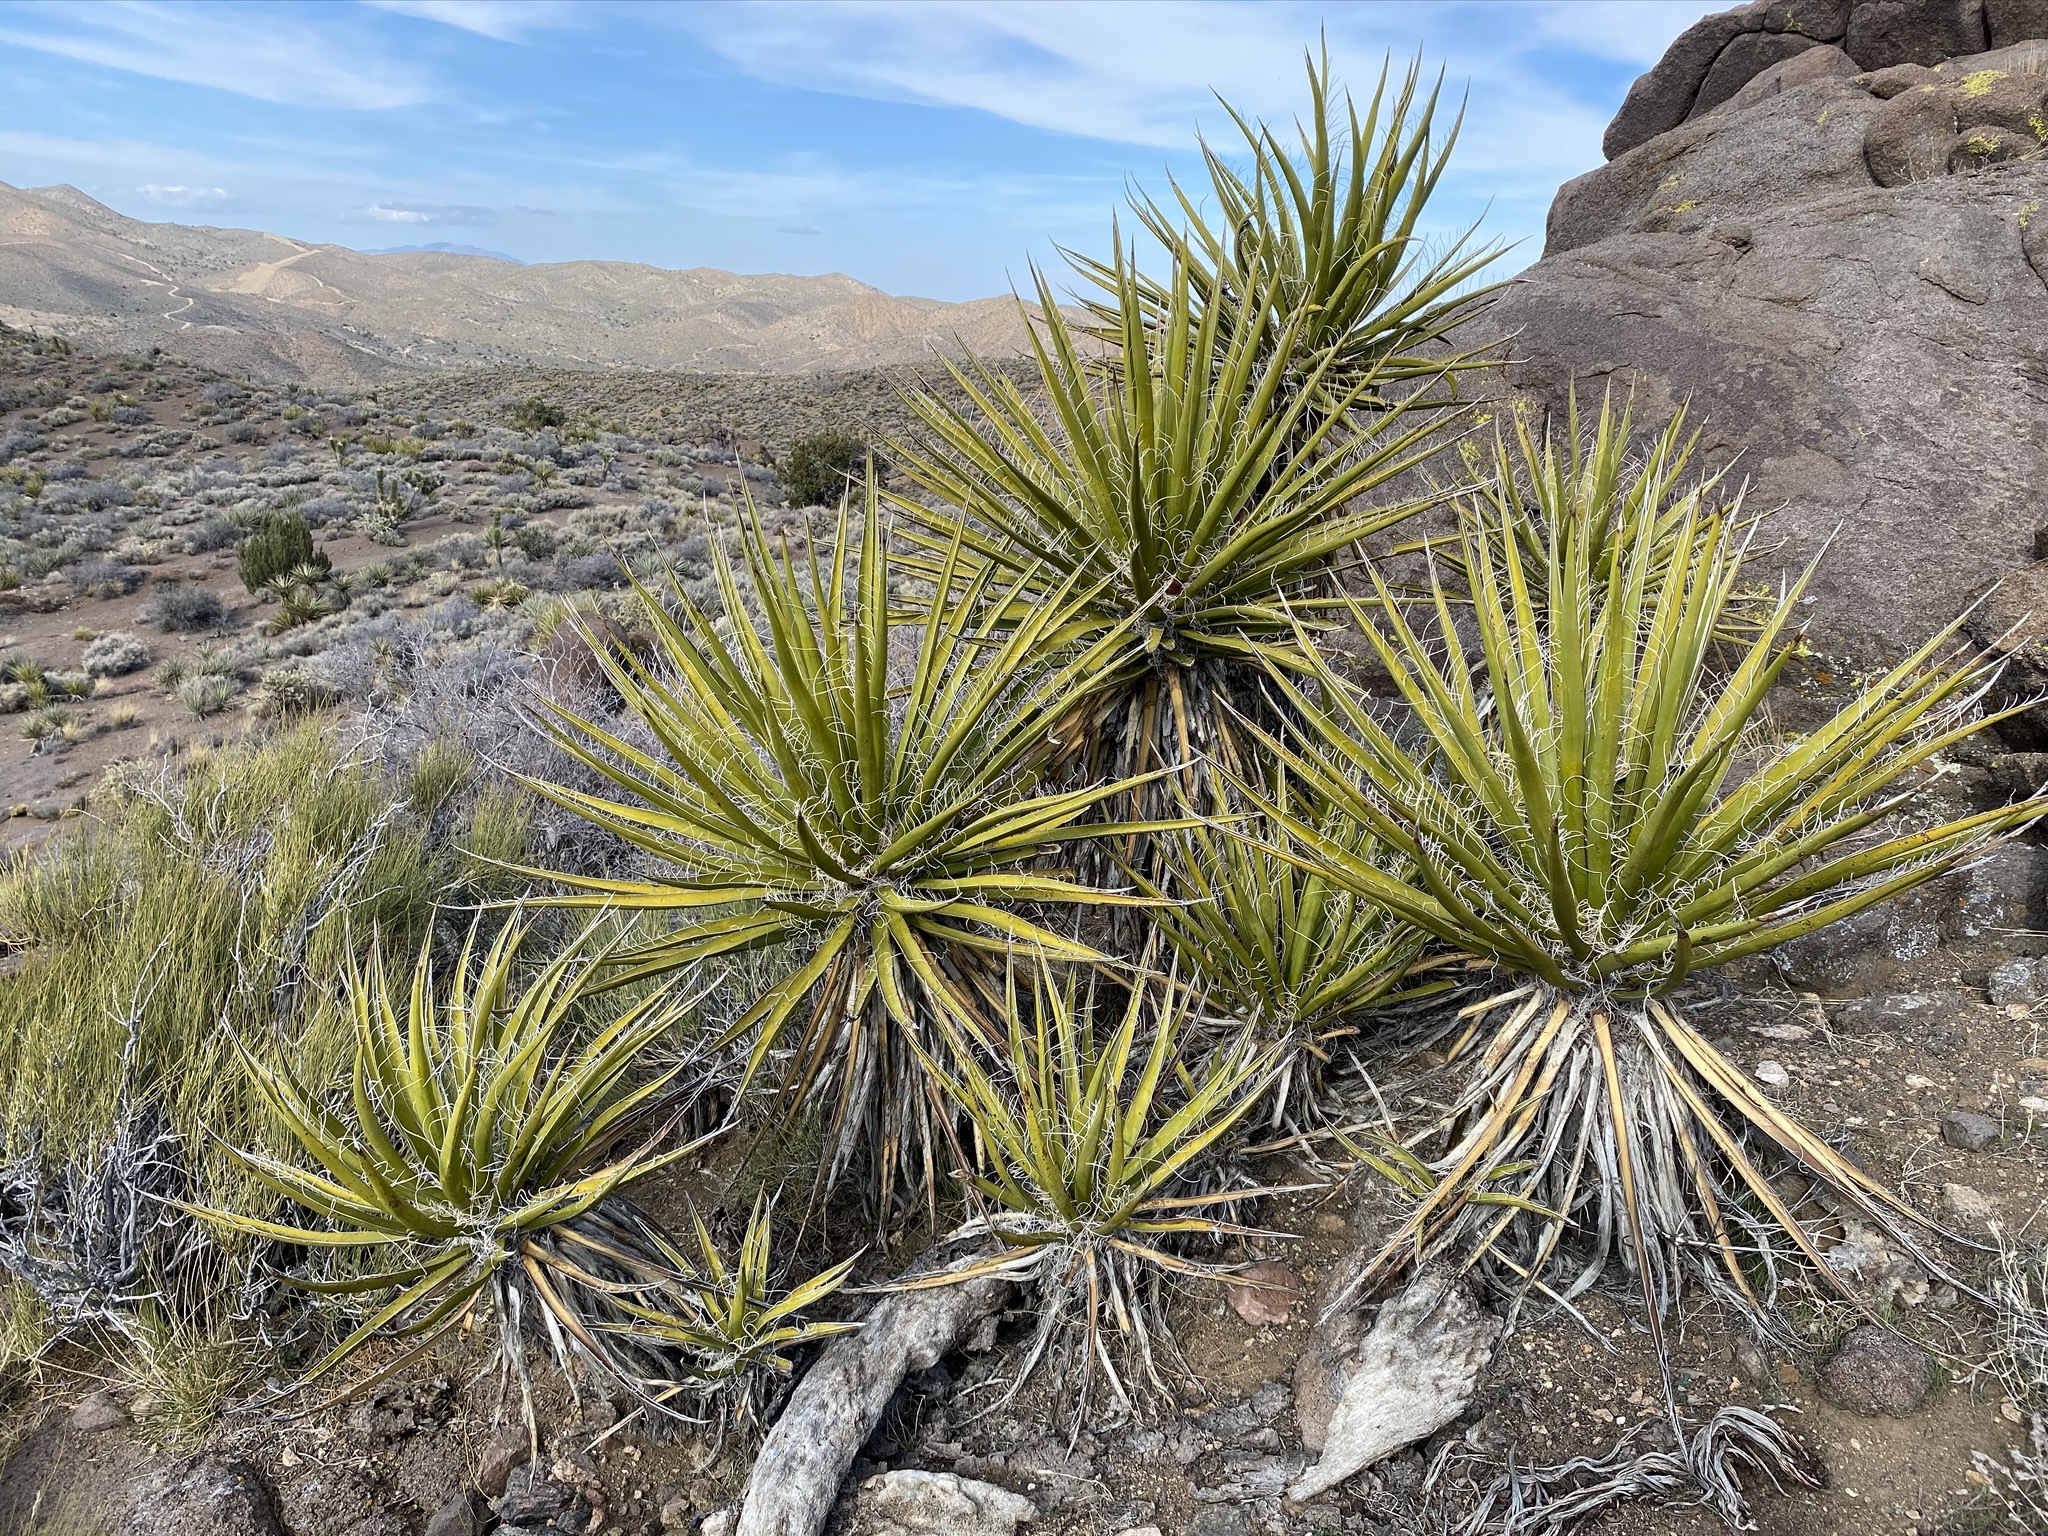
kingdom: Plantae
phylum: Tracheophyta
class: Liliopsida
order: Asparagales
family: Asparagaceae
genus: Yucca
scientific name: Yucca schidigera
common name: Mojave yucca
